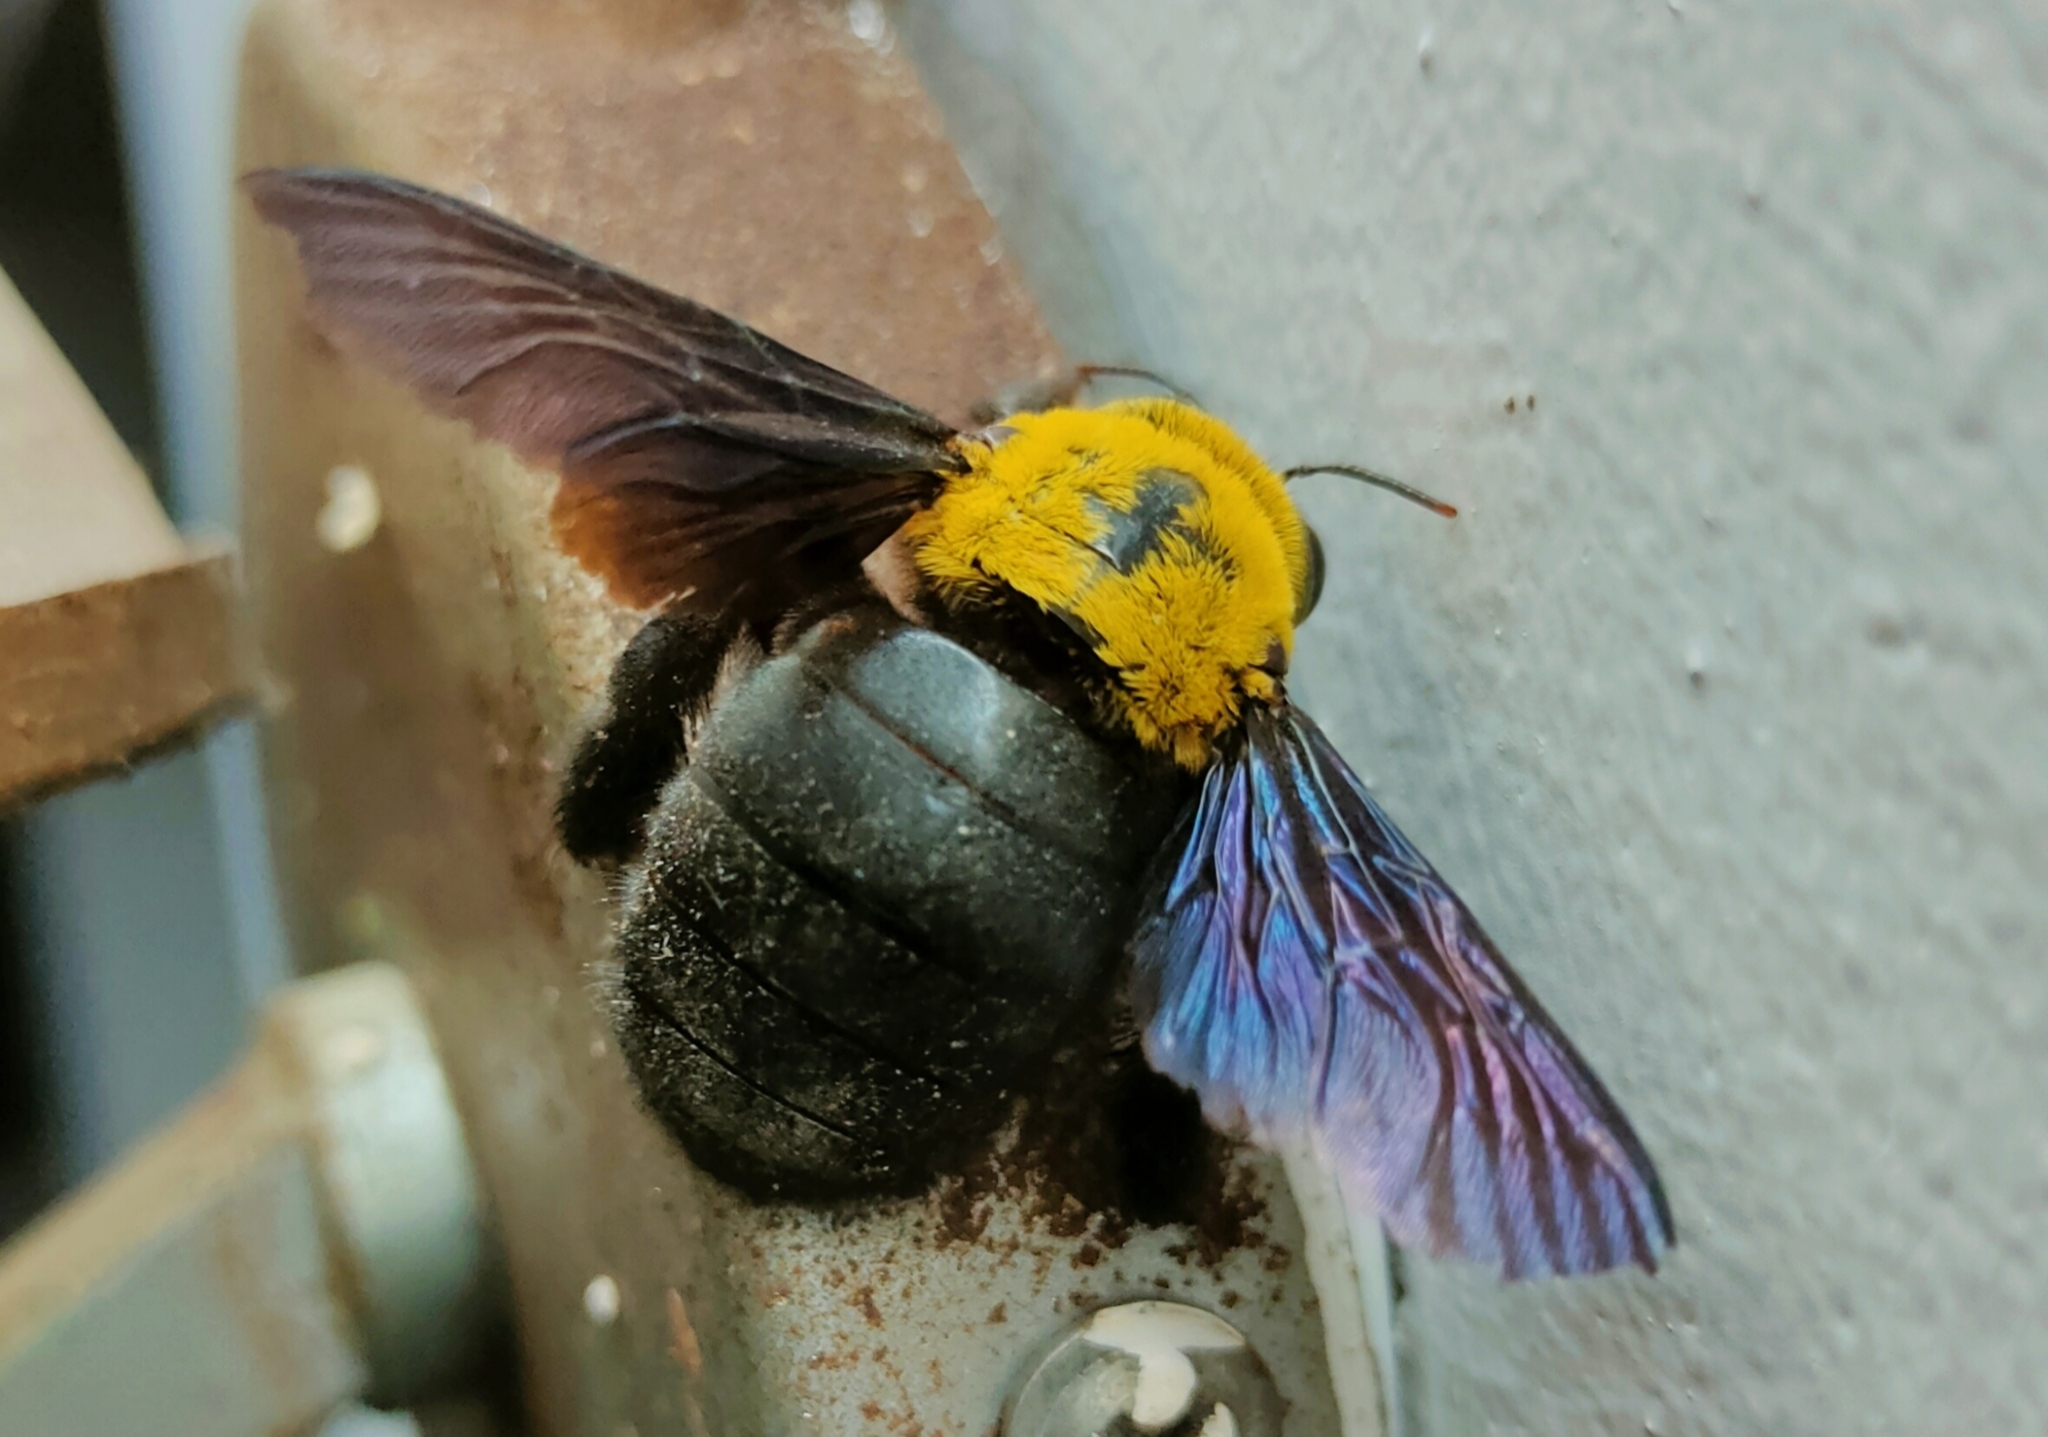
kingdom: Animalia
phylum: Arthropoda
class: Insecta
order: Hymenoptera
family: Apidae
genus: Xylocopa
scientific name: Xylocopa ruficornis
